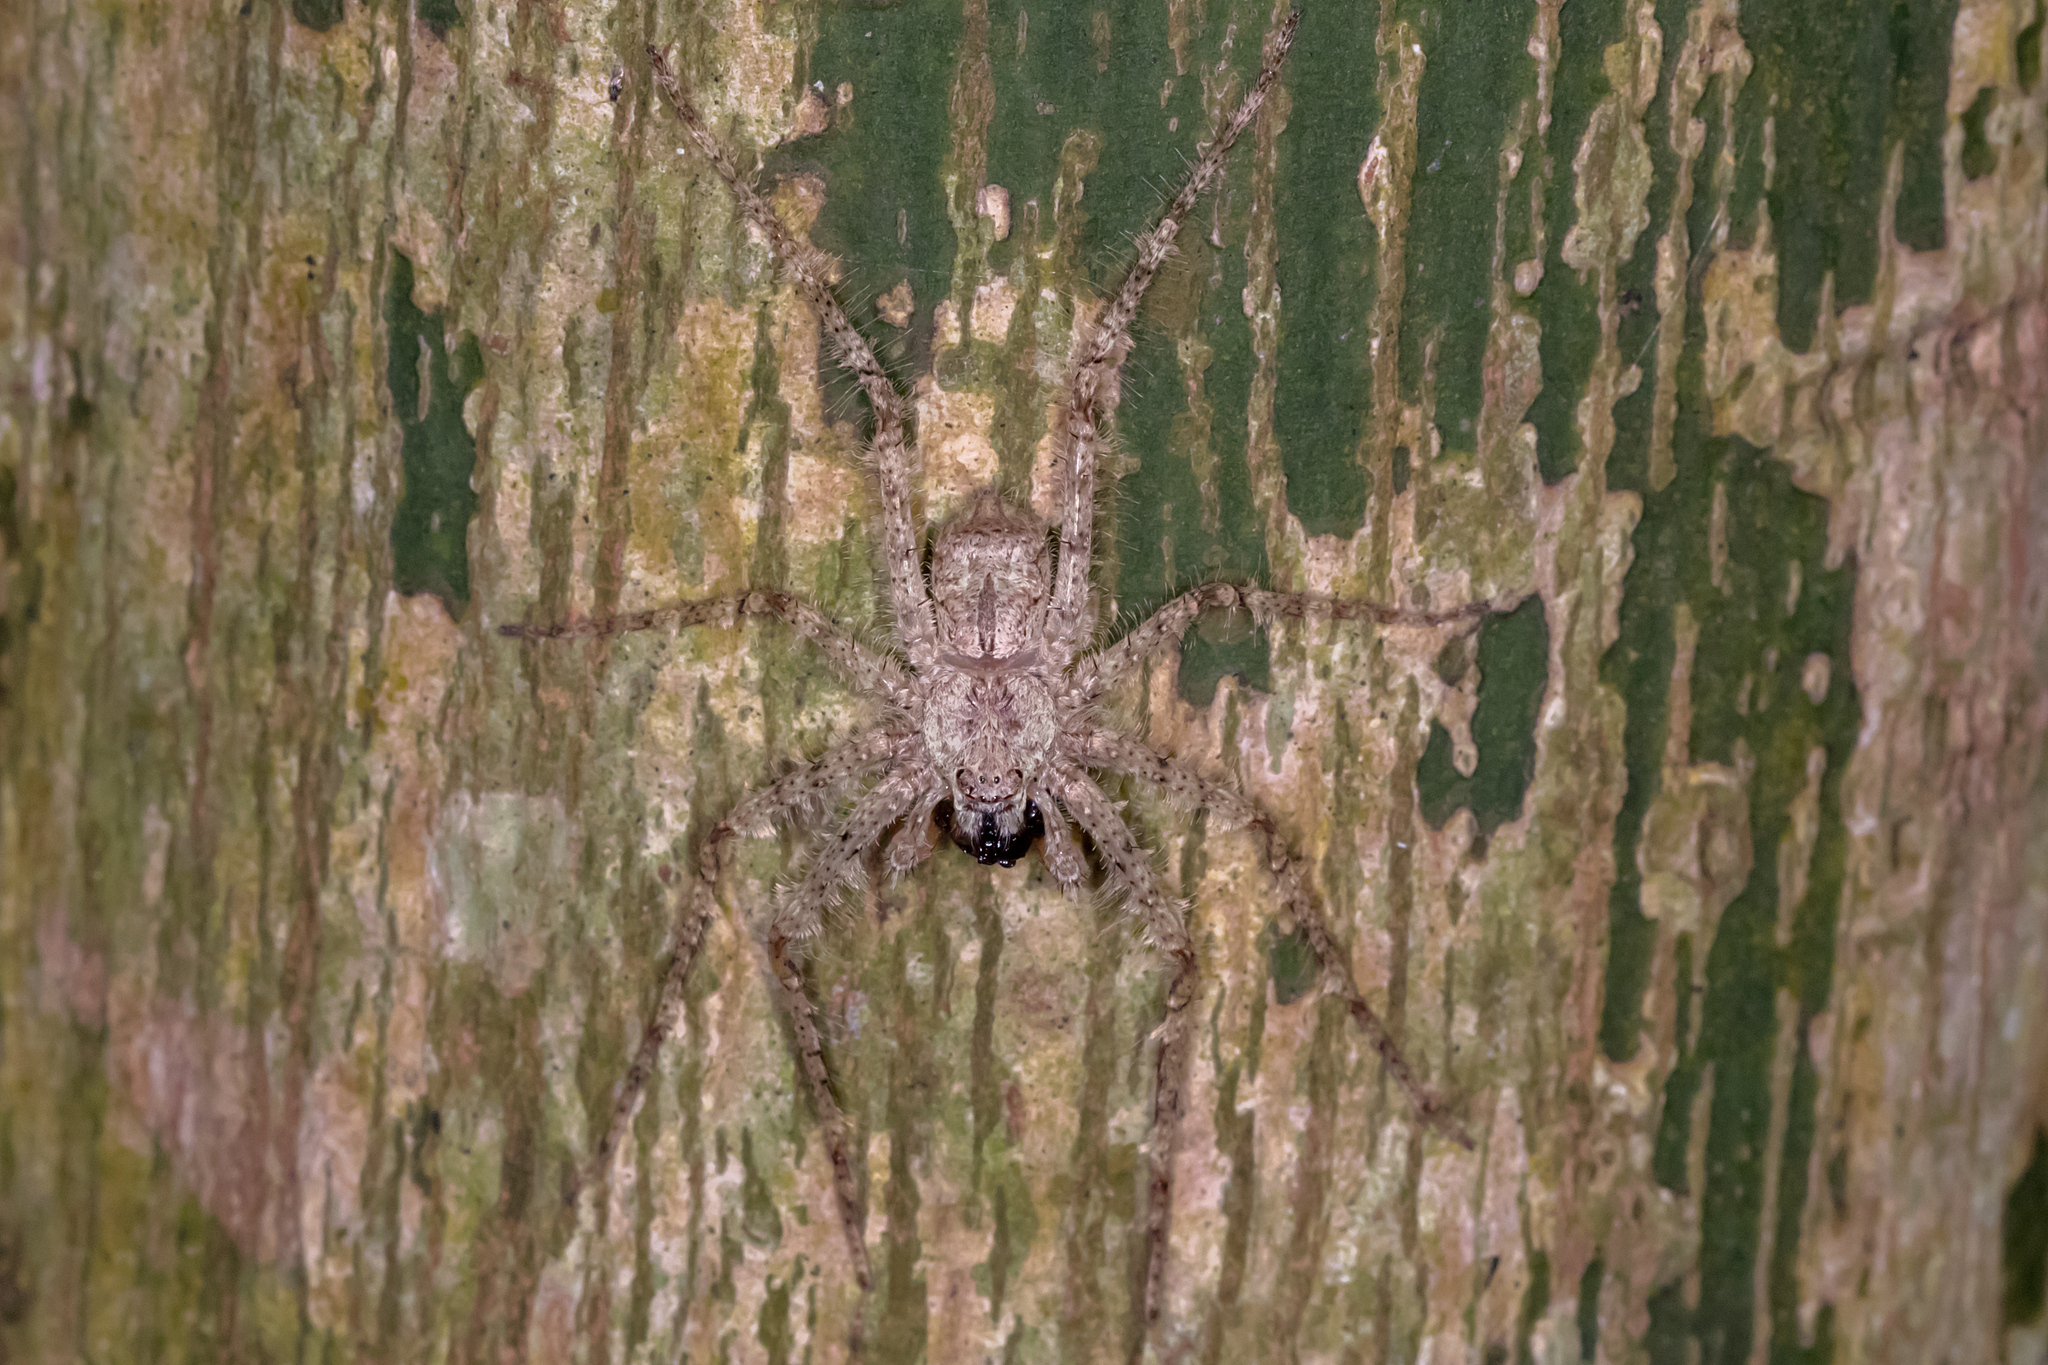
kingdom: Animalia
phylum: Arthropoda
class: Arachnida
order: Araneae
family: Sparassidae
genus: Pandercetes
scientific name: Pandercetes gracilis
